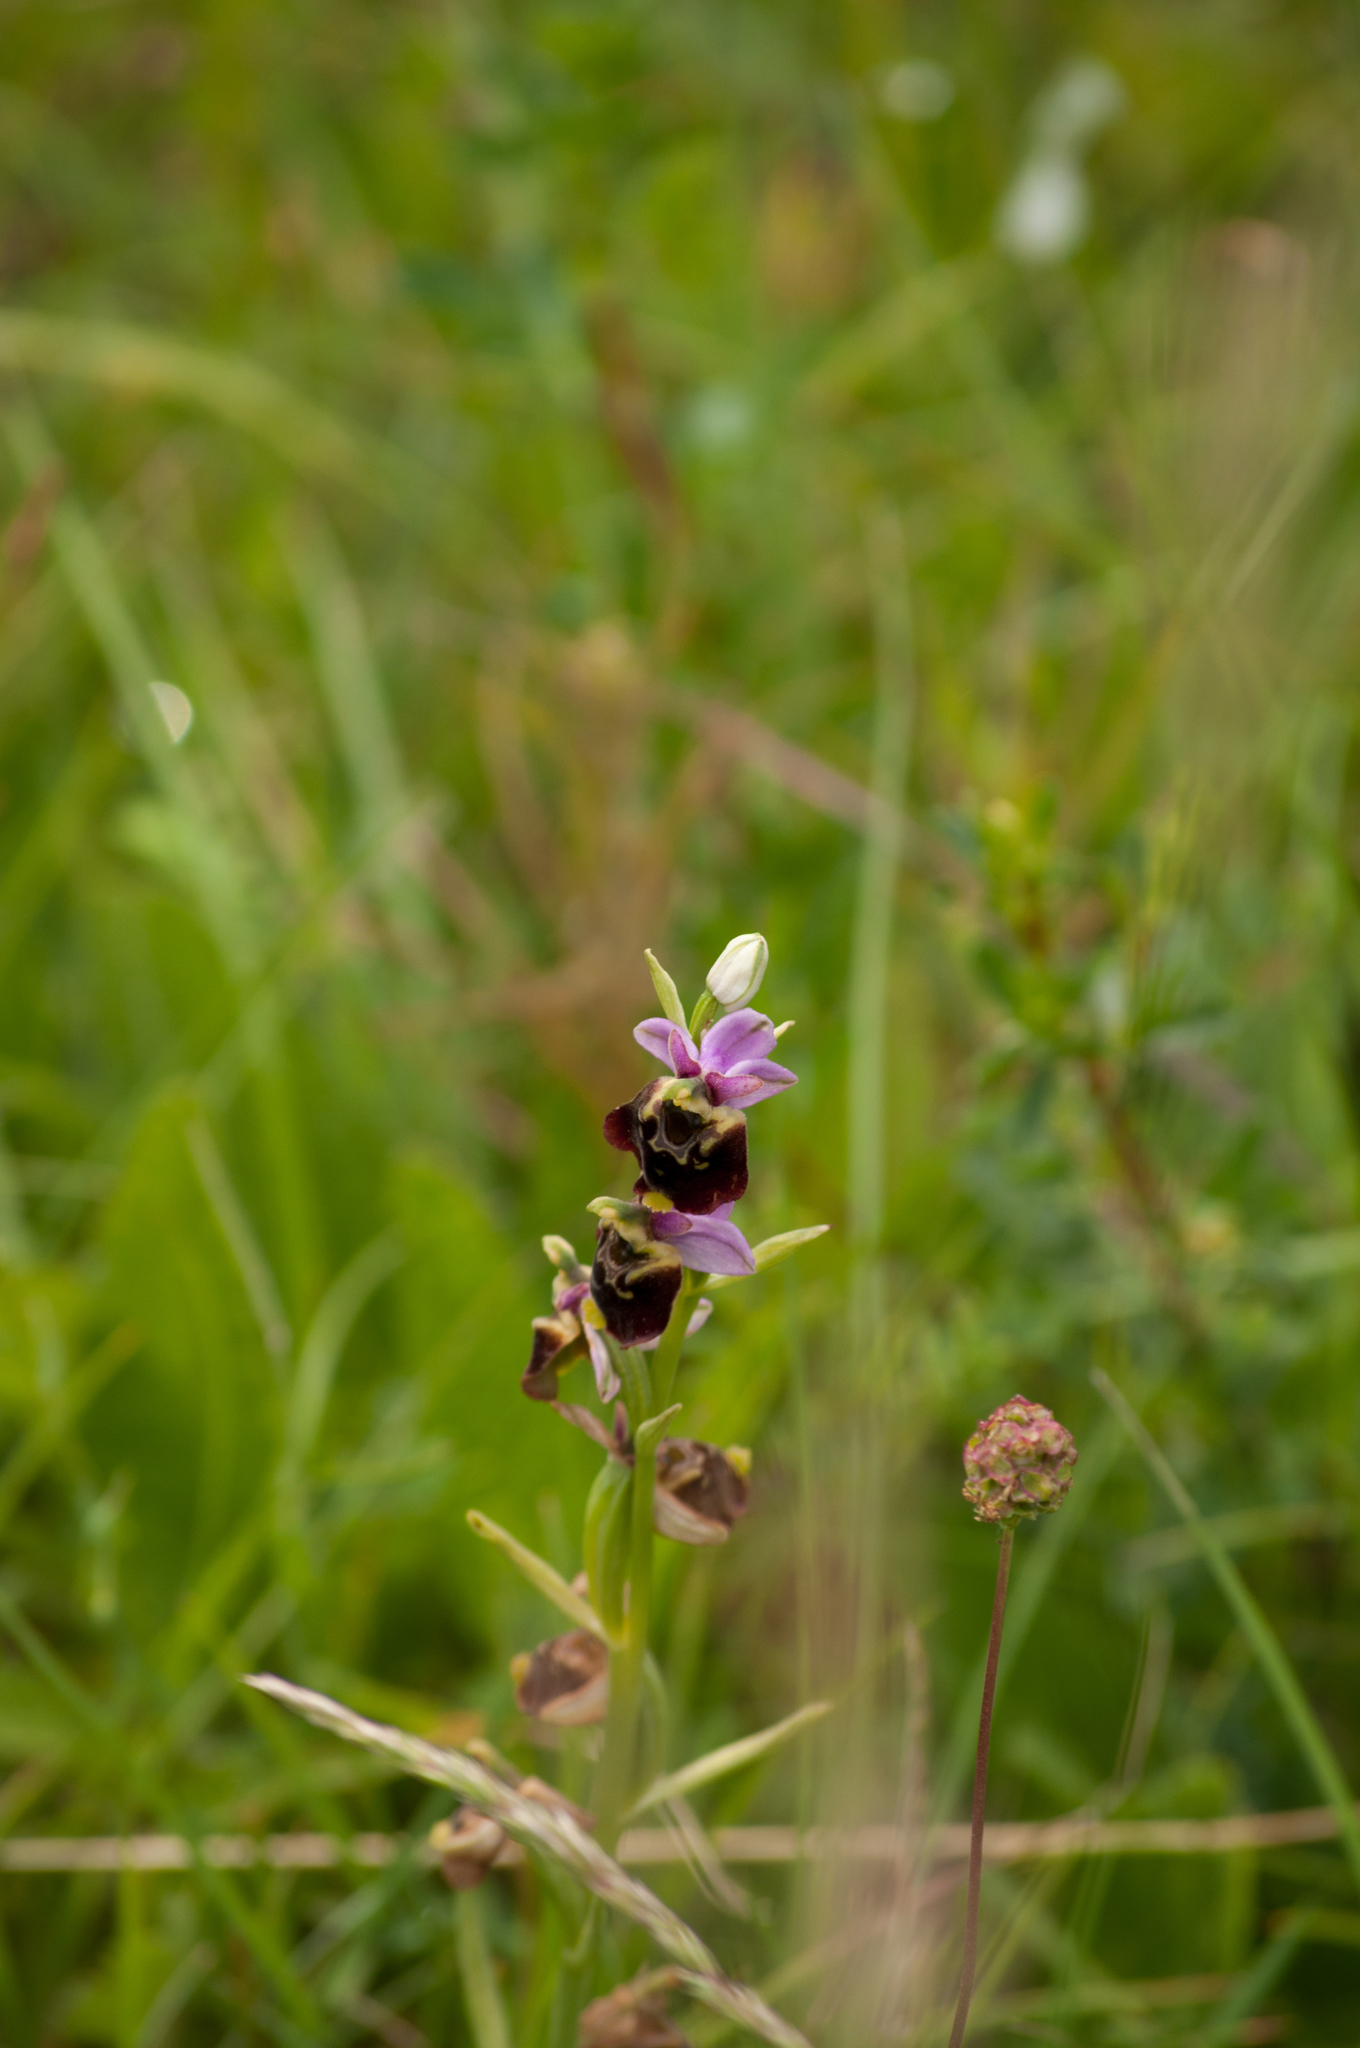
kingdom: Plantae
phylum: Tracheophyta
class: Liliopsida
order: Asparagales
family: Orchidaceae
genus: Ophrys
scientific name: Ophrys holosericea
